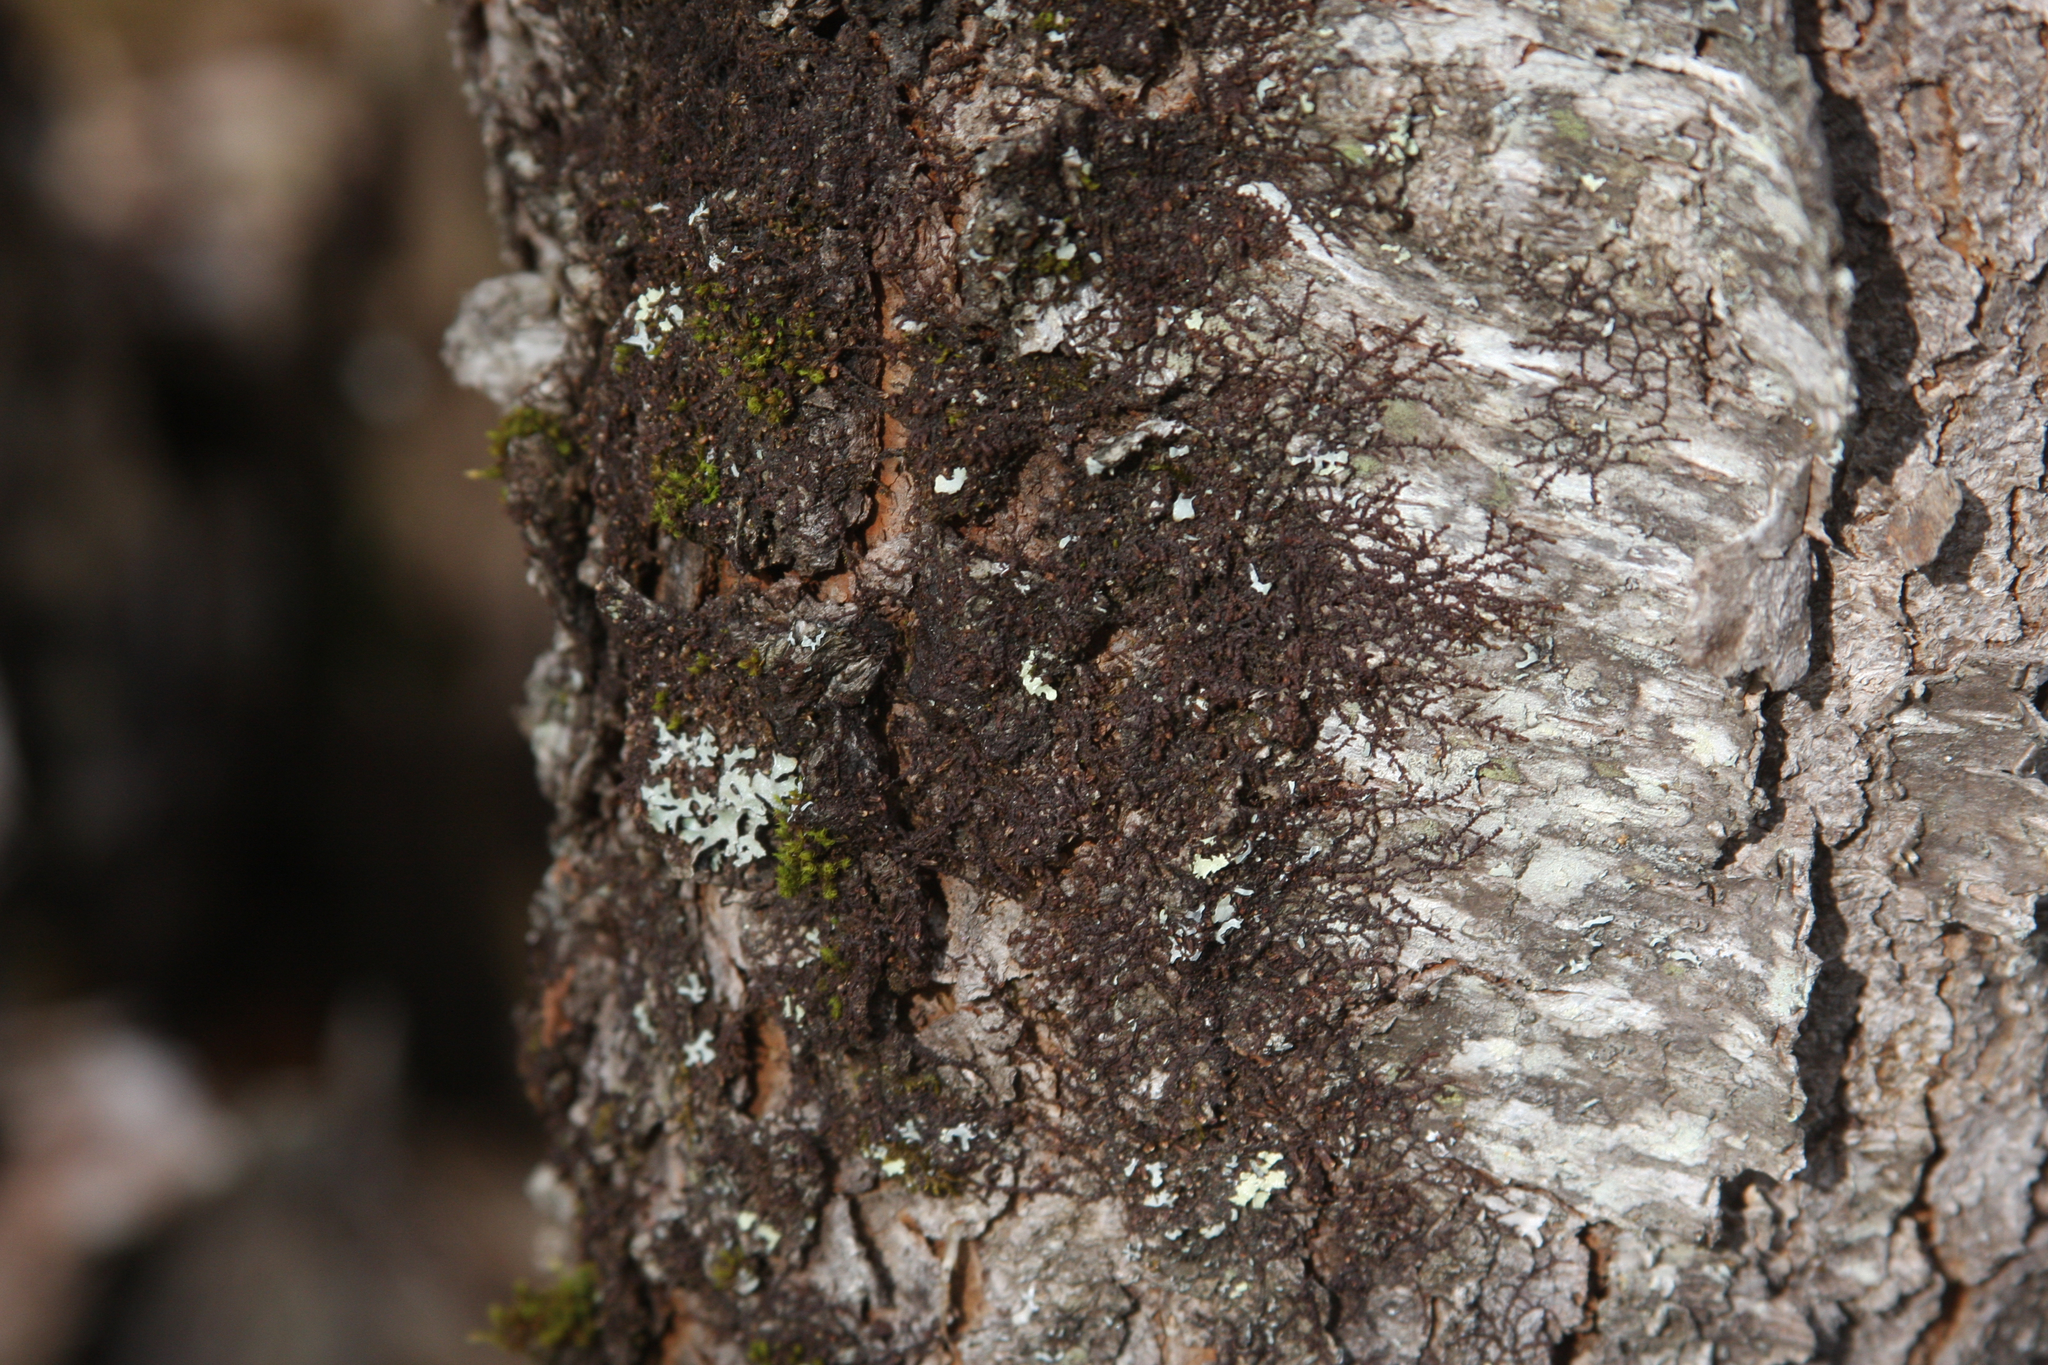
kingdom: Plantae
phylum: Marchantiophyta
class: Jungermanniopsida
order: Porellales
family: Frullaniaceae
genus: Frullania
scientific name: Frullania eboracensis
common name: New york scalewort
